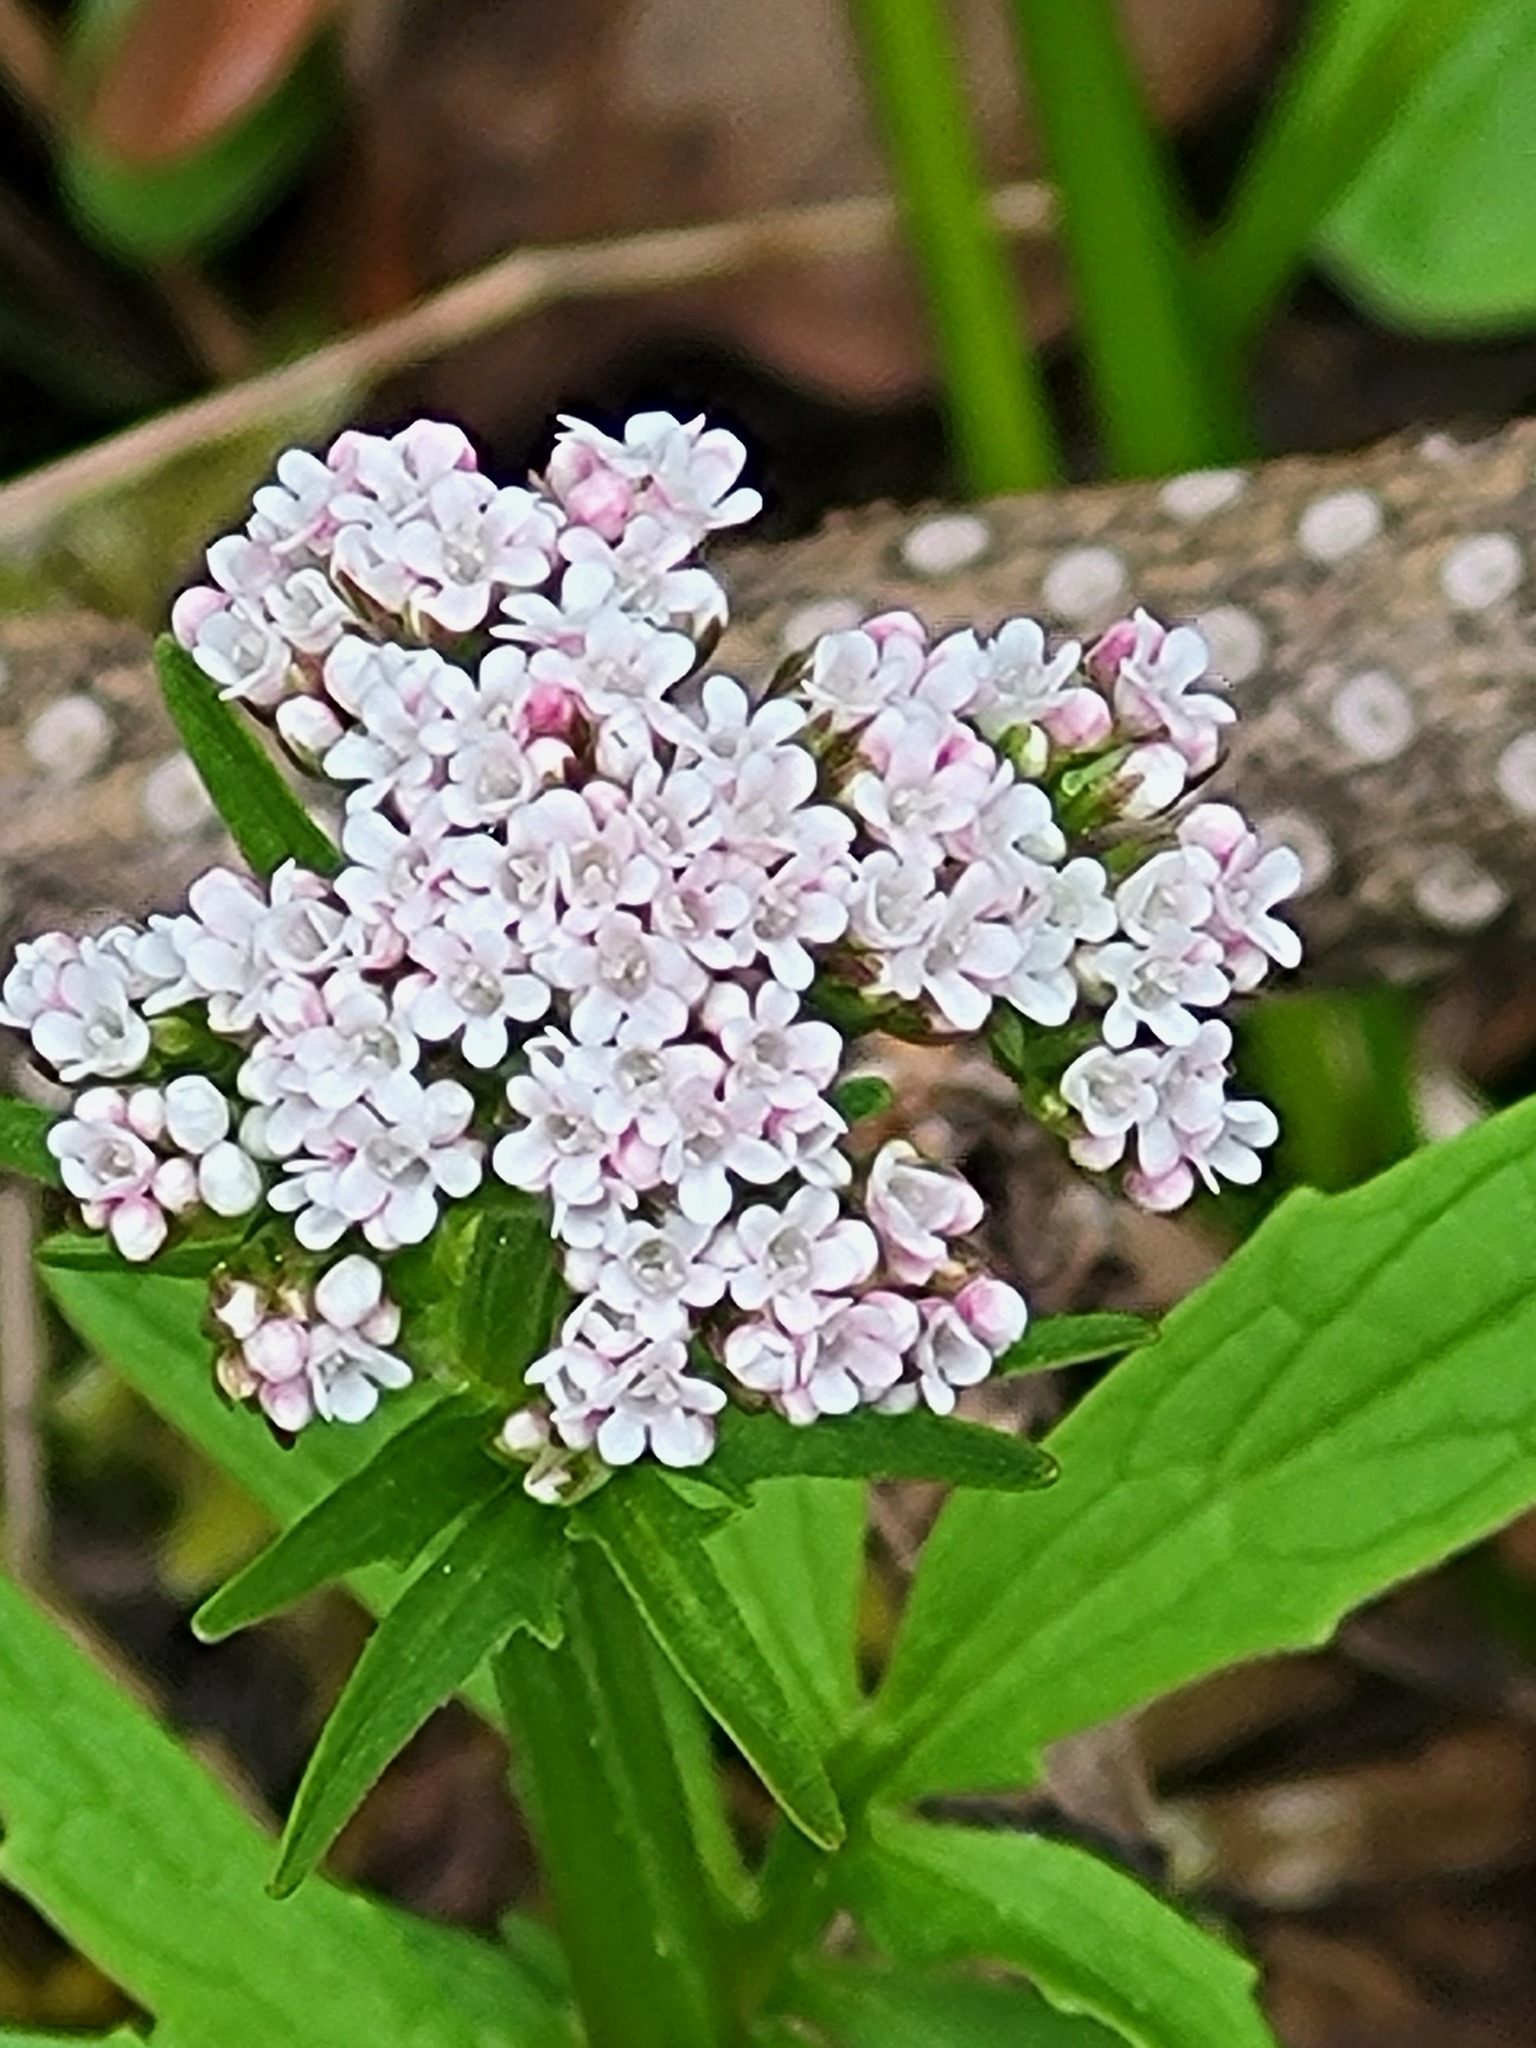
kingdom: Plantae
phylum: Tracheophyta
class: Magnoliopsida
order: Dipsacales
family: Caprifoliaceae
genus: Valeriana
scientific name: Valeriana dioica
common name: Marsh valerian
